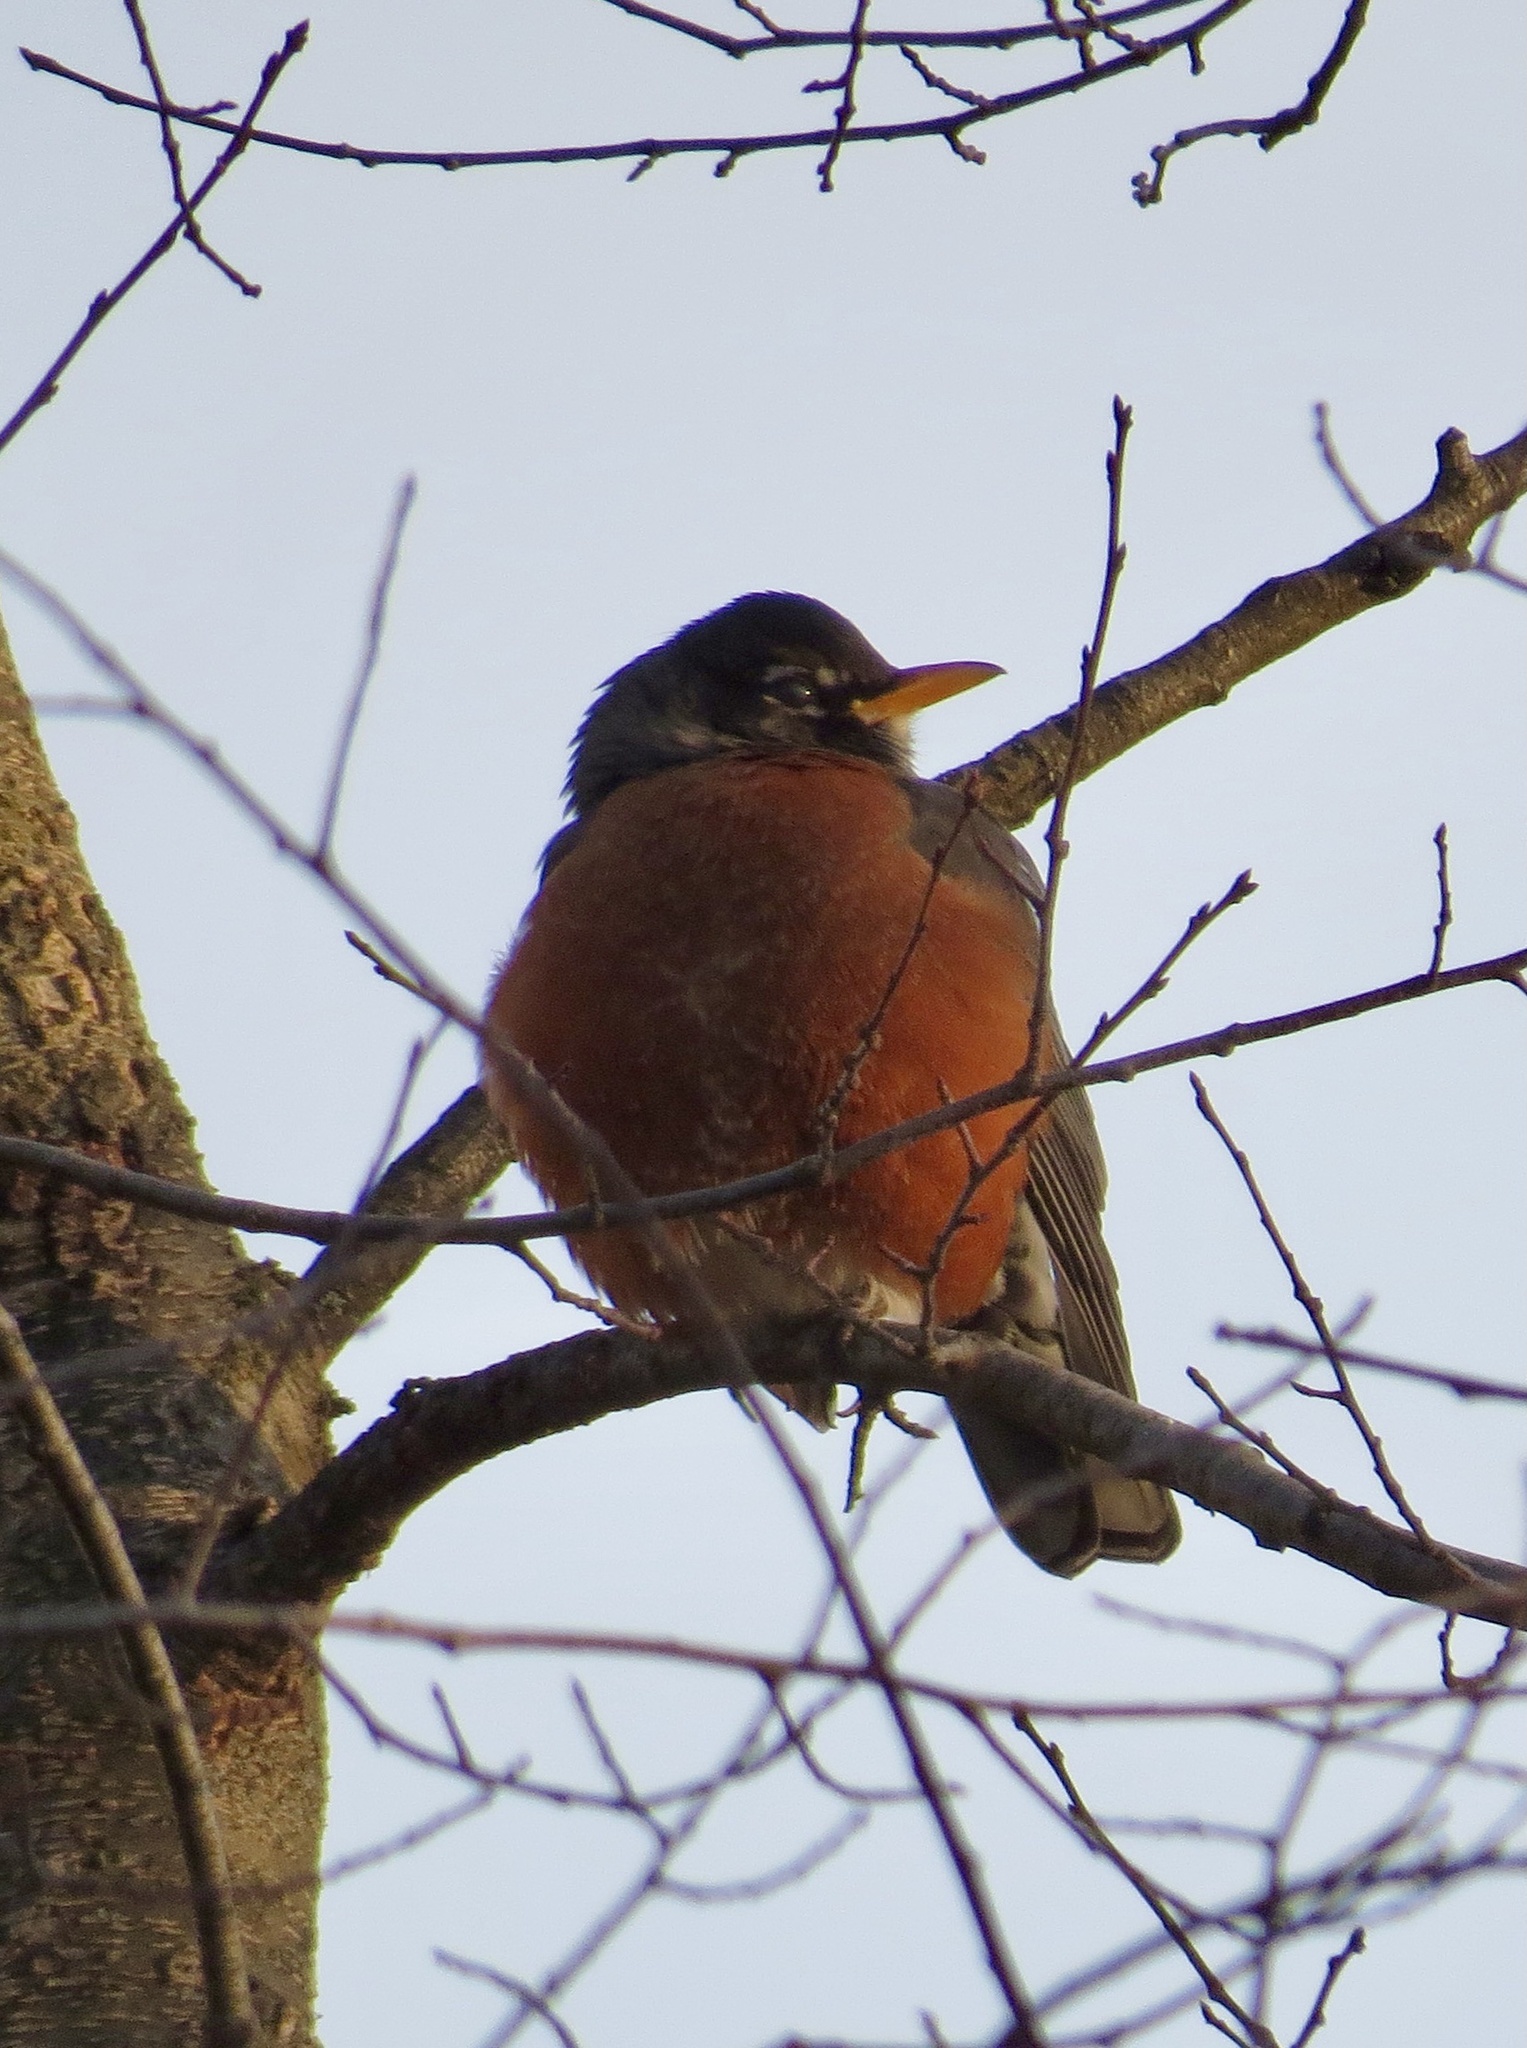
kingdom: Animalia
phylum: Chordata
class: Aves
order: Passeriformes
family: Turdidae
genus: Turdus
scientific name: Turdus migratorius
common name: American robin
